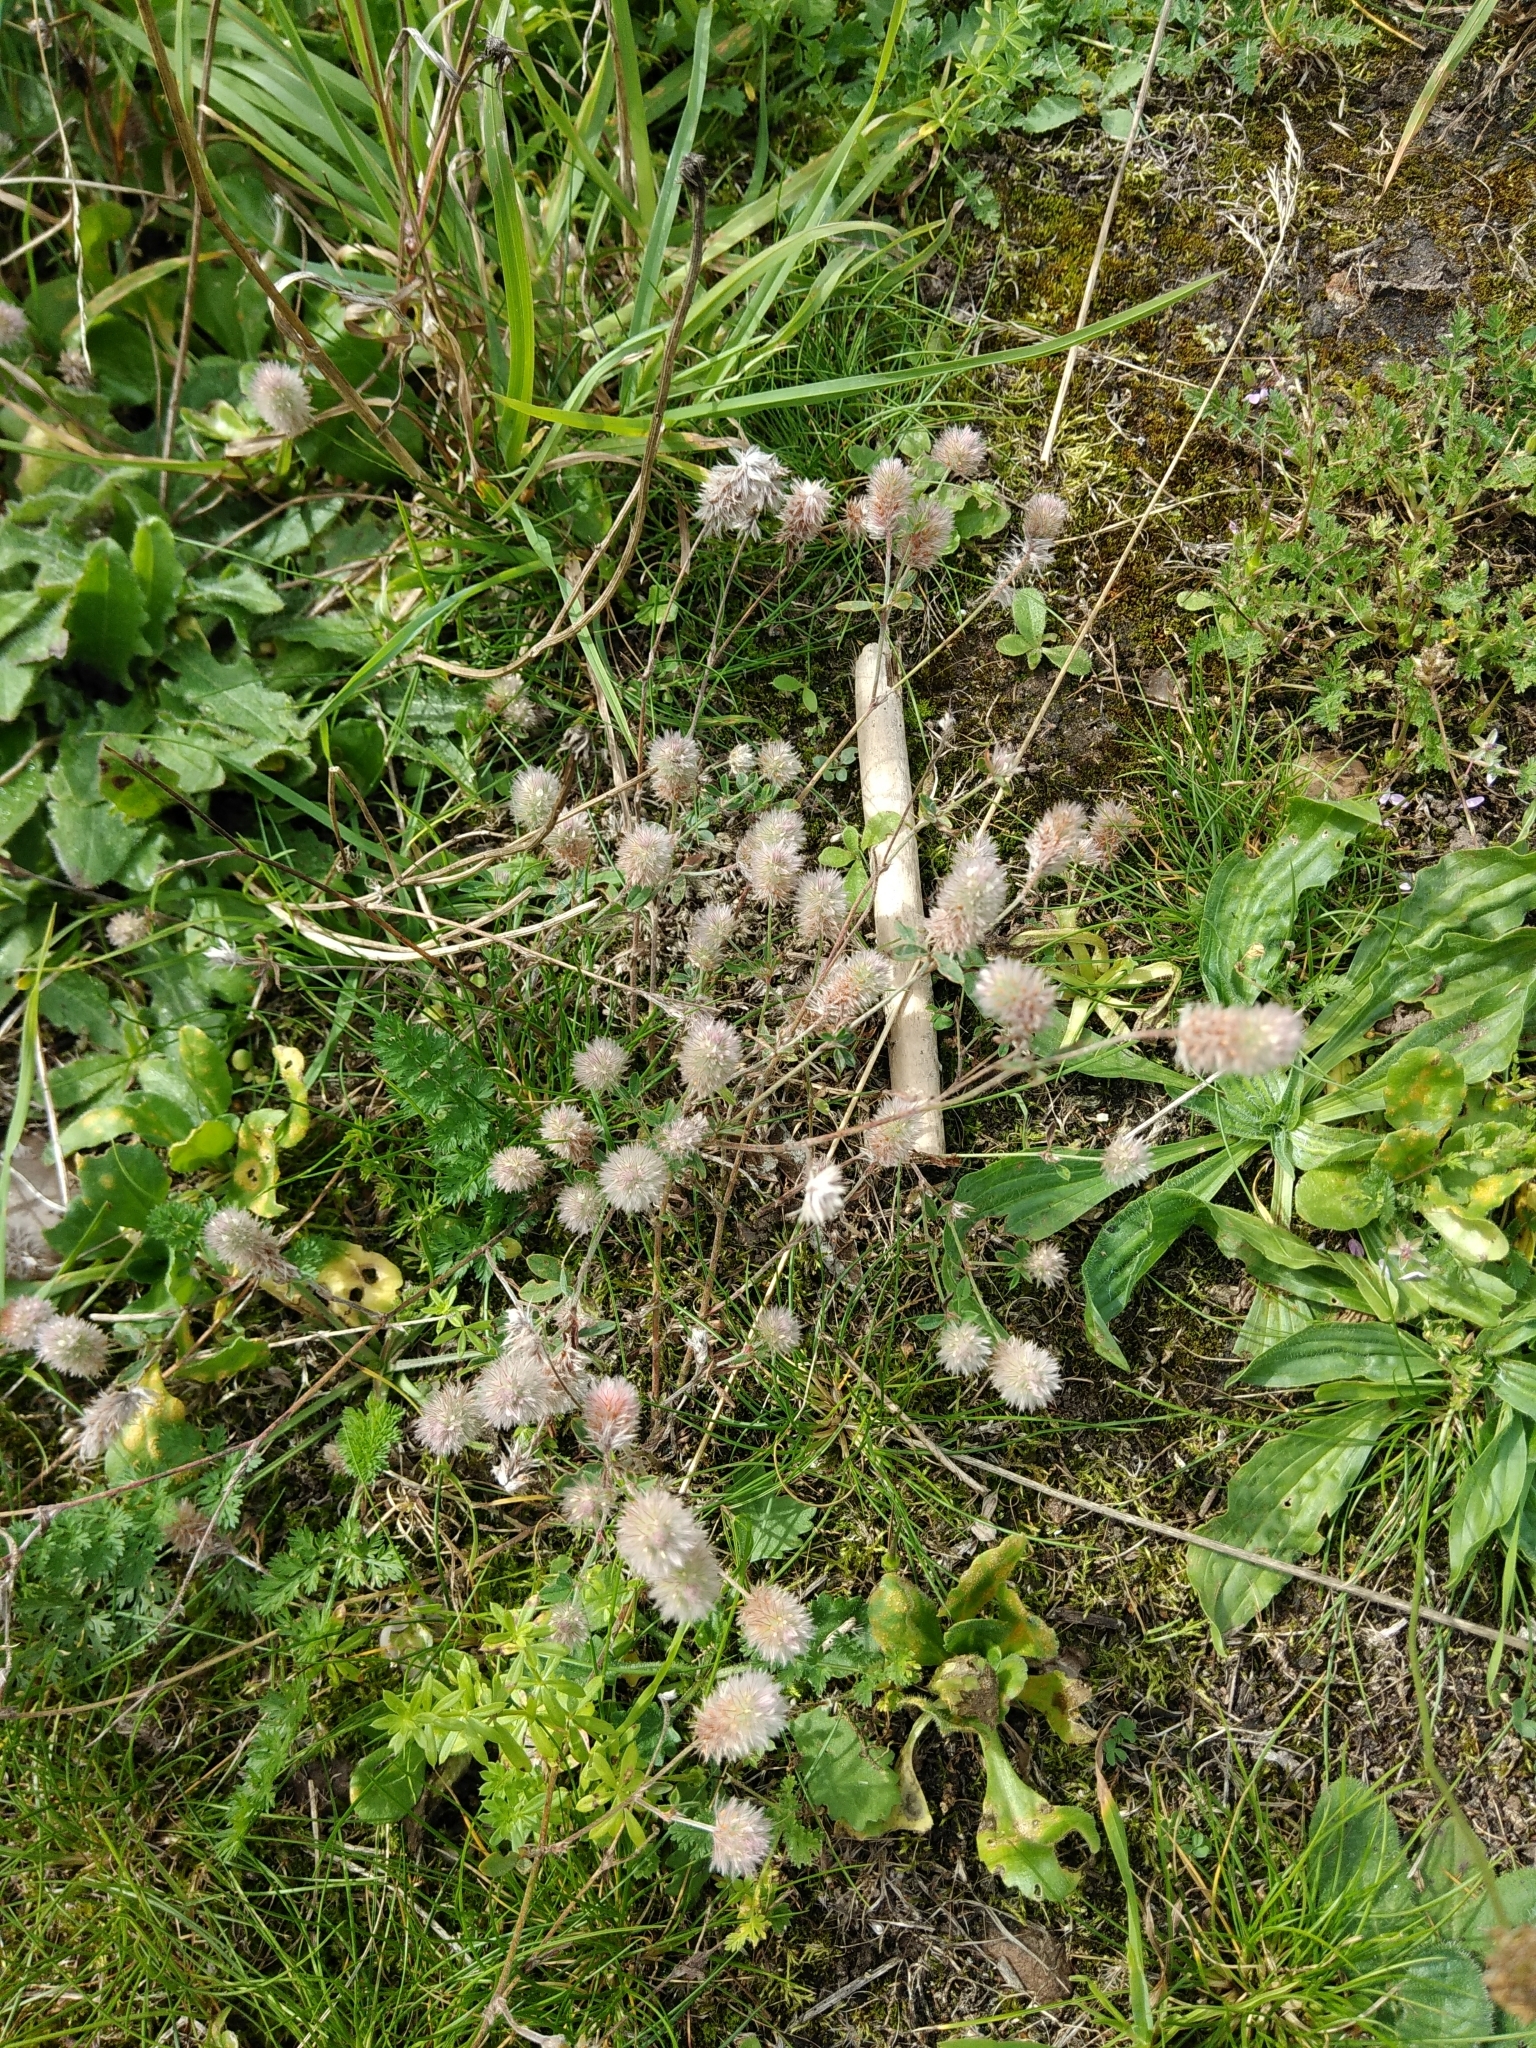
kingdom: Plantae
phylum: Tracheophyta
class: Magnoliopsida
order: Fabales
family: Fabaceae
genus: Trifolium
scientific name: Trifolium arvense
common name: Hare's-foot clover
